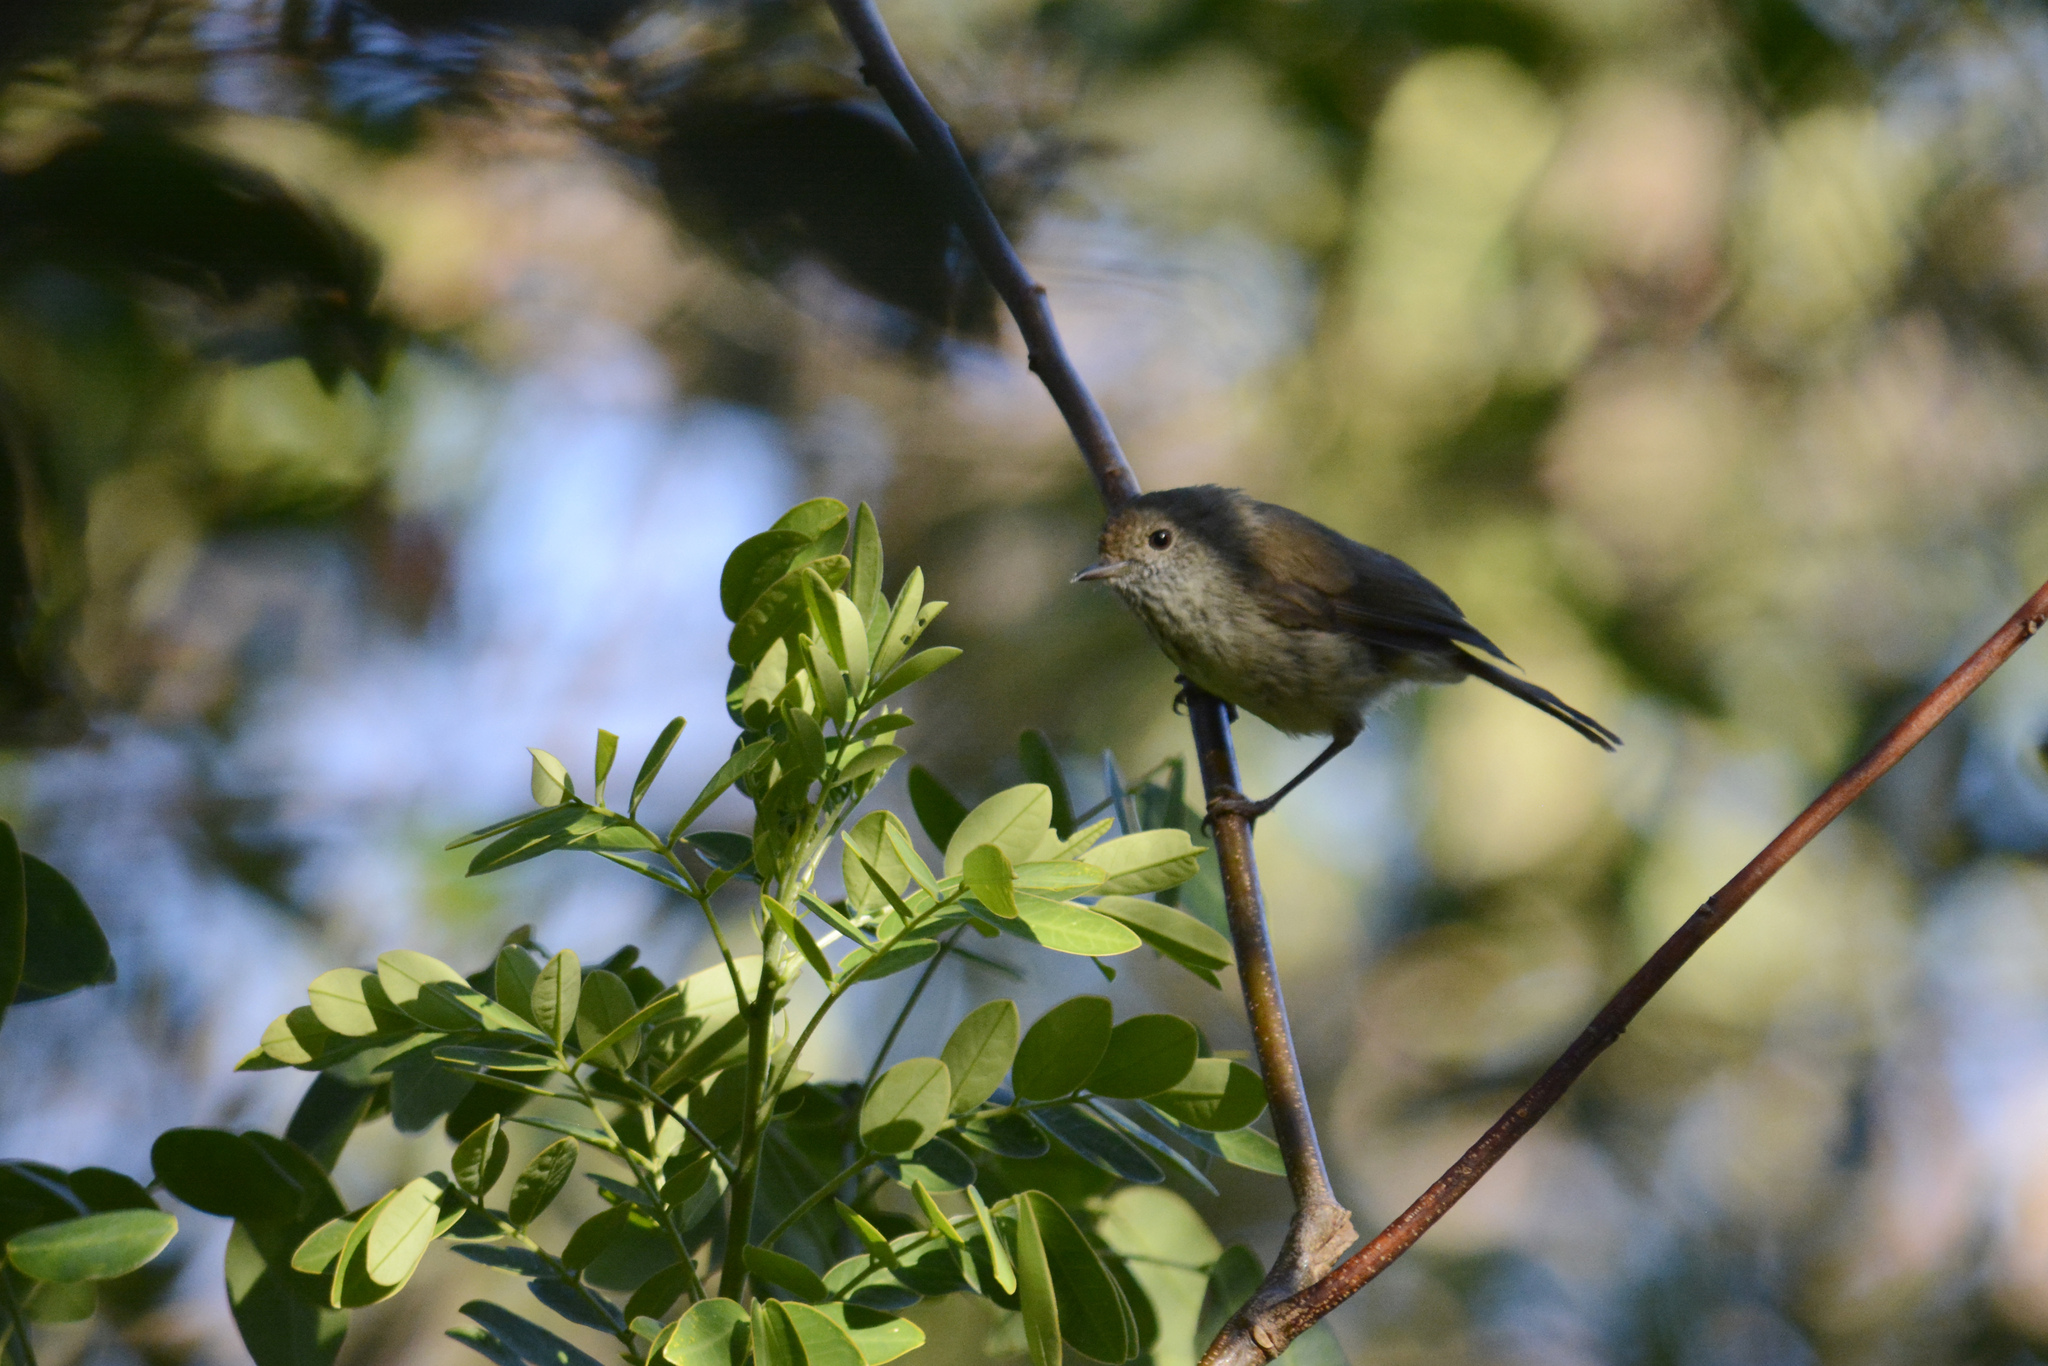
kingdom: Animalia
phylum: Chordata
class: Aves
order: Passeriformes
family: Acanthizidae
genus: Acanthiza
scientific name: Acanthiza pusilla
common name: Brown thornbill
